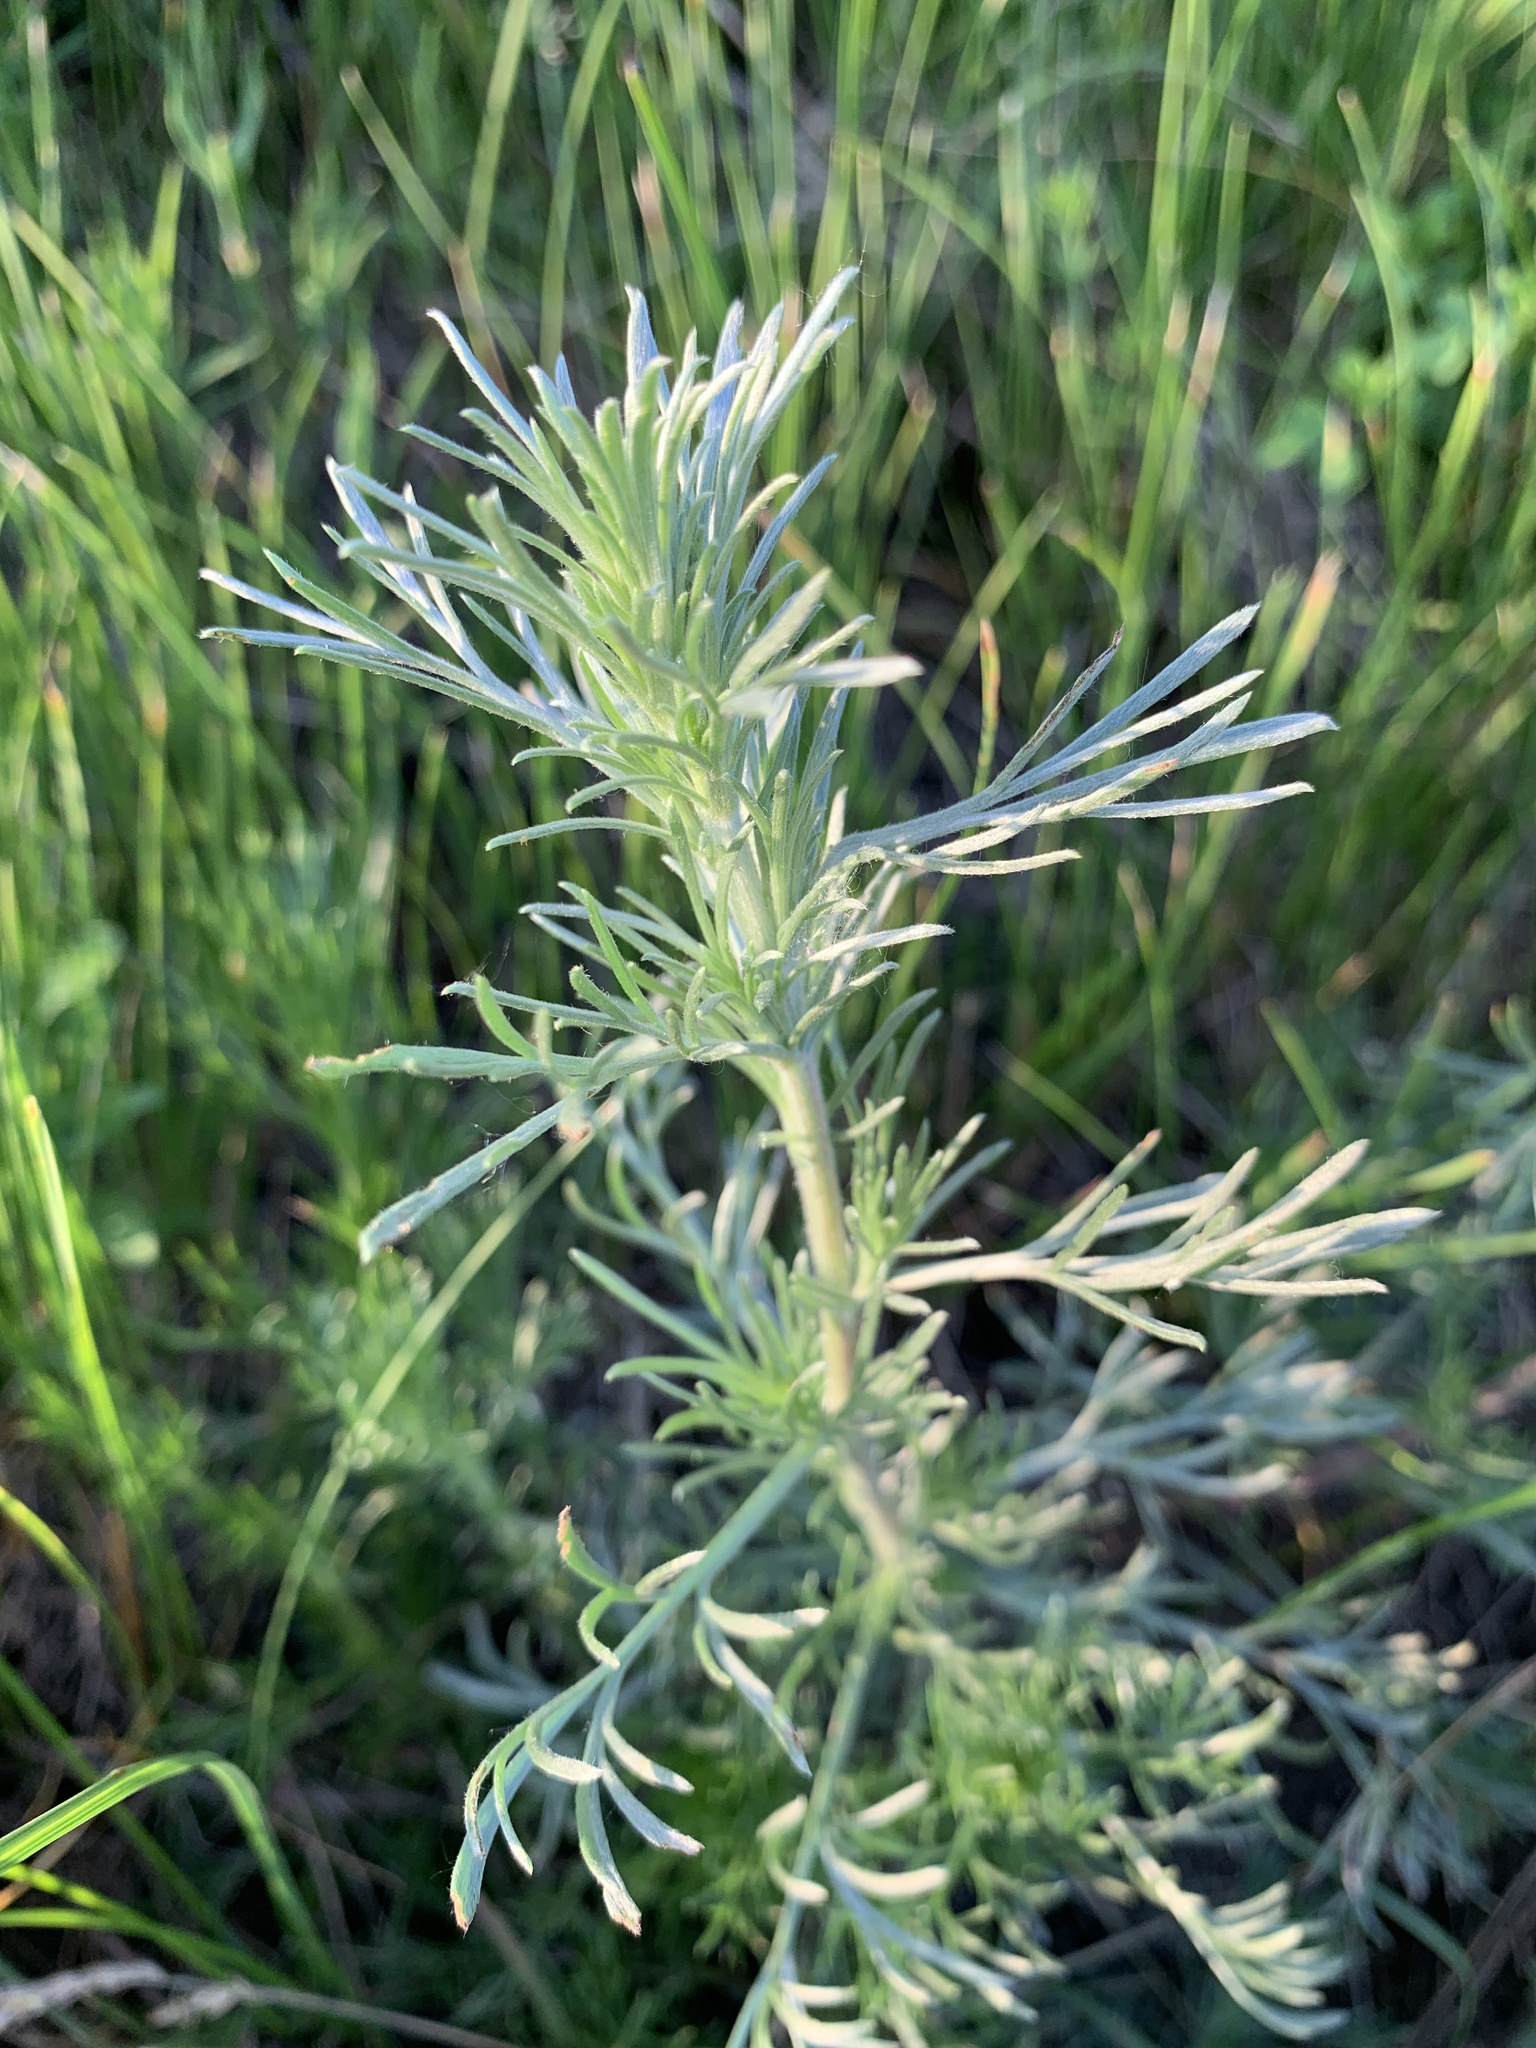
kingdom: Plantae
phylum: Tracheophyta
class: Magnoliopsida
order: Asterales
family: Asteraceae
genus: Artemisia
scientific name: Artemisia campestris
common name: Field wormwood
